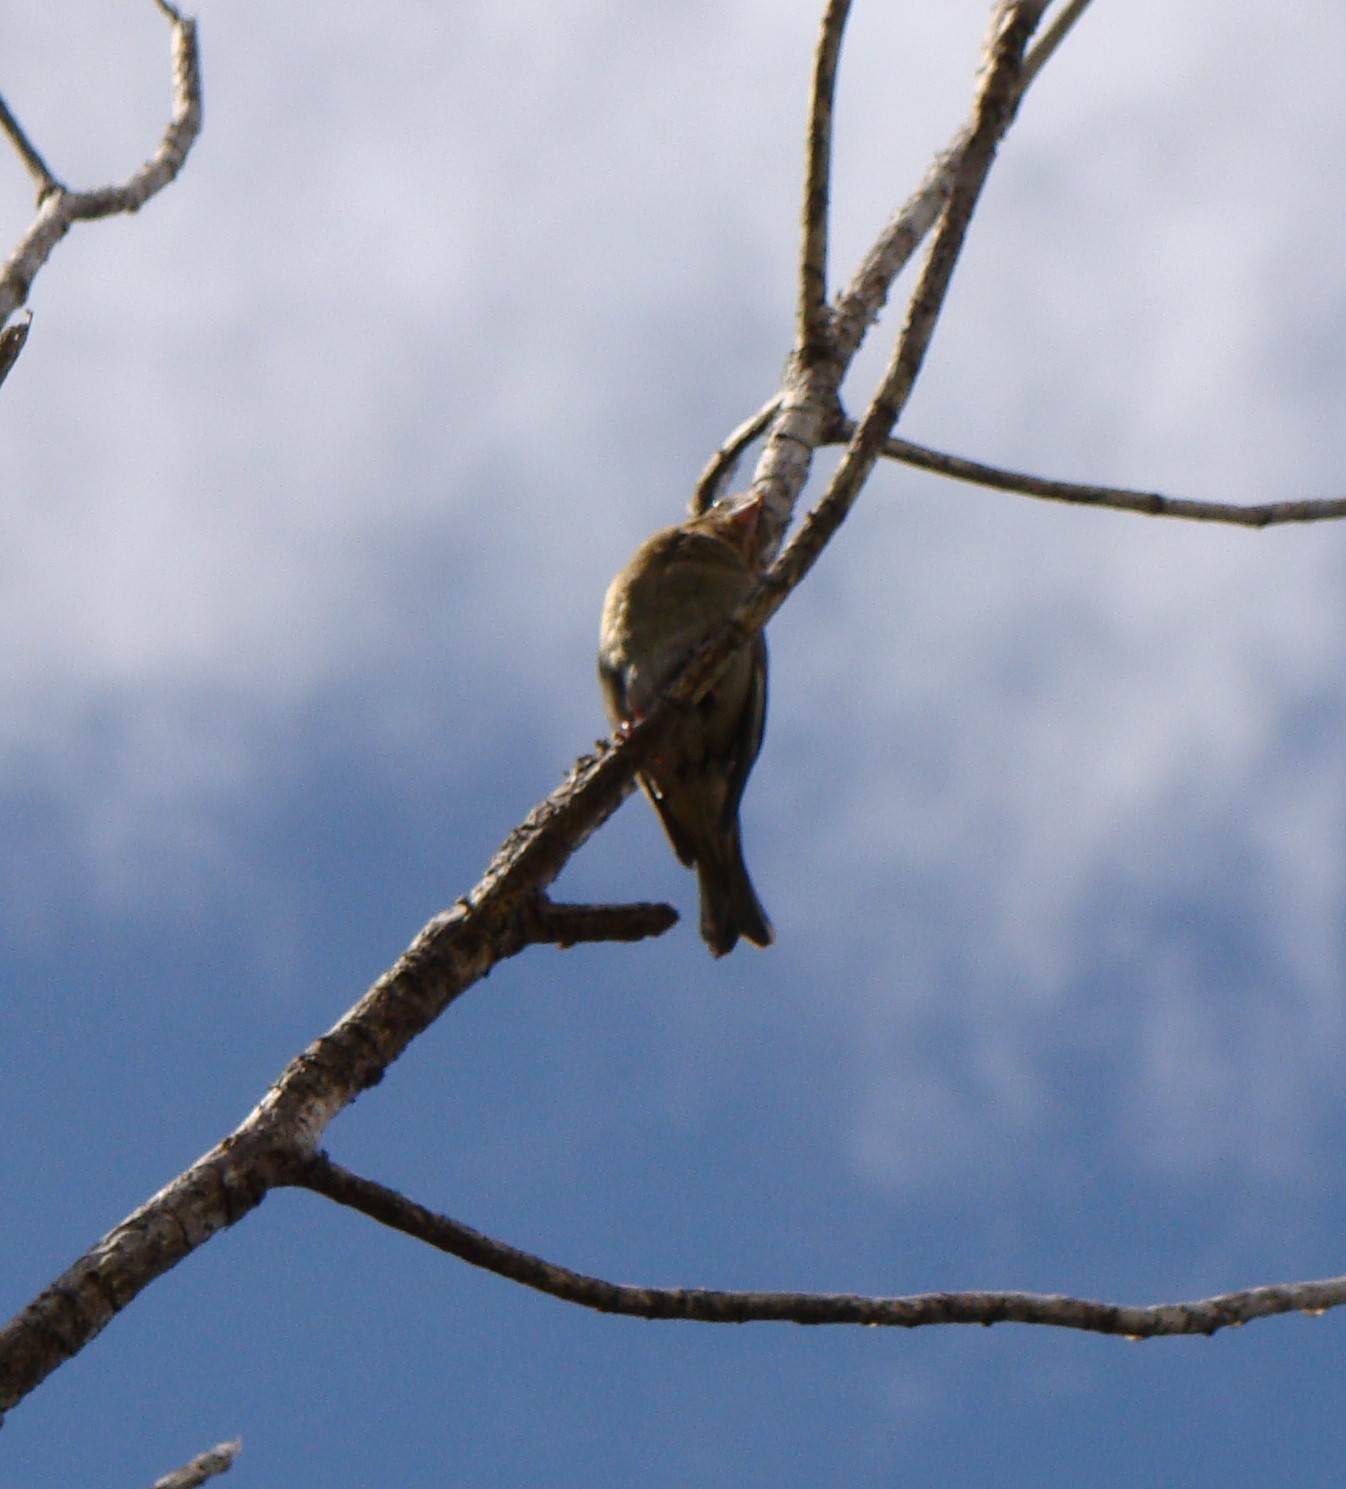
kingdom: Plantae
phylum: Tracheophyta
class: Liliopsida
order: Poales
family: Poaceae
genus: Chloris
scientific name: Chloris chloris
